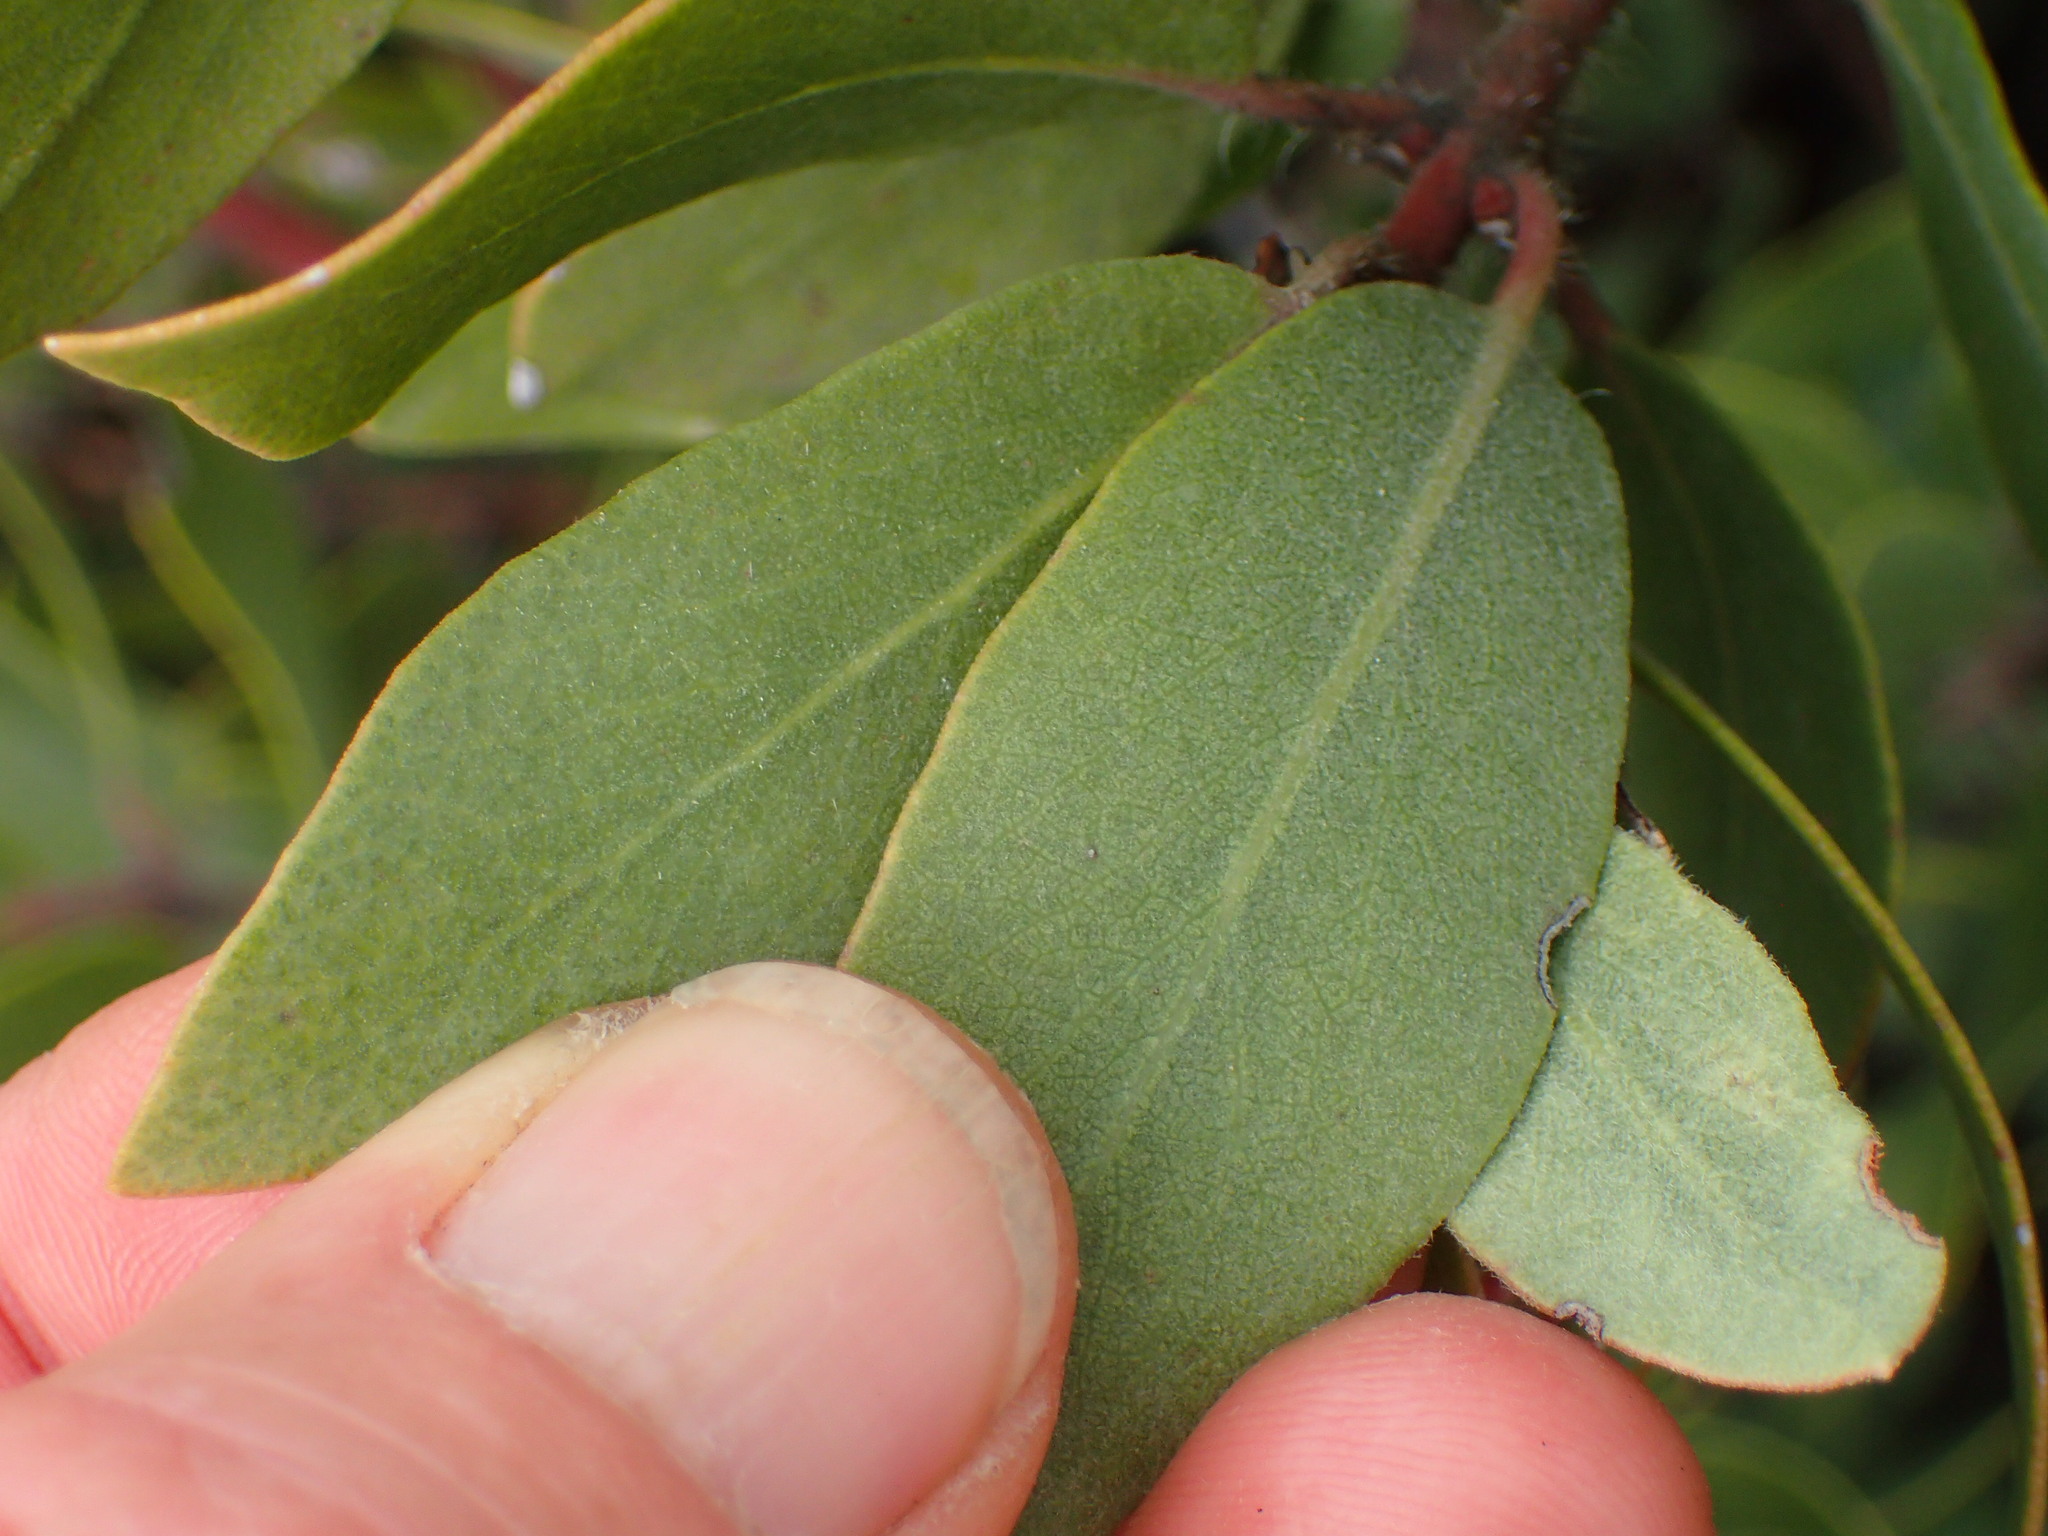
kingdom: Plantae
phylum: Tracheophyta
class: Magnoliopsida
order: Ericales
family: Ericaceae
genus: Arctostaphylos
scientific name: Arctostaphylos glandulosa
